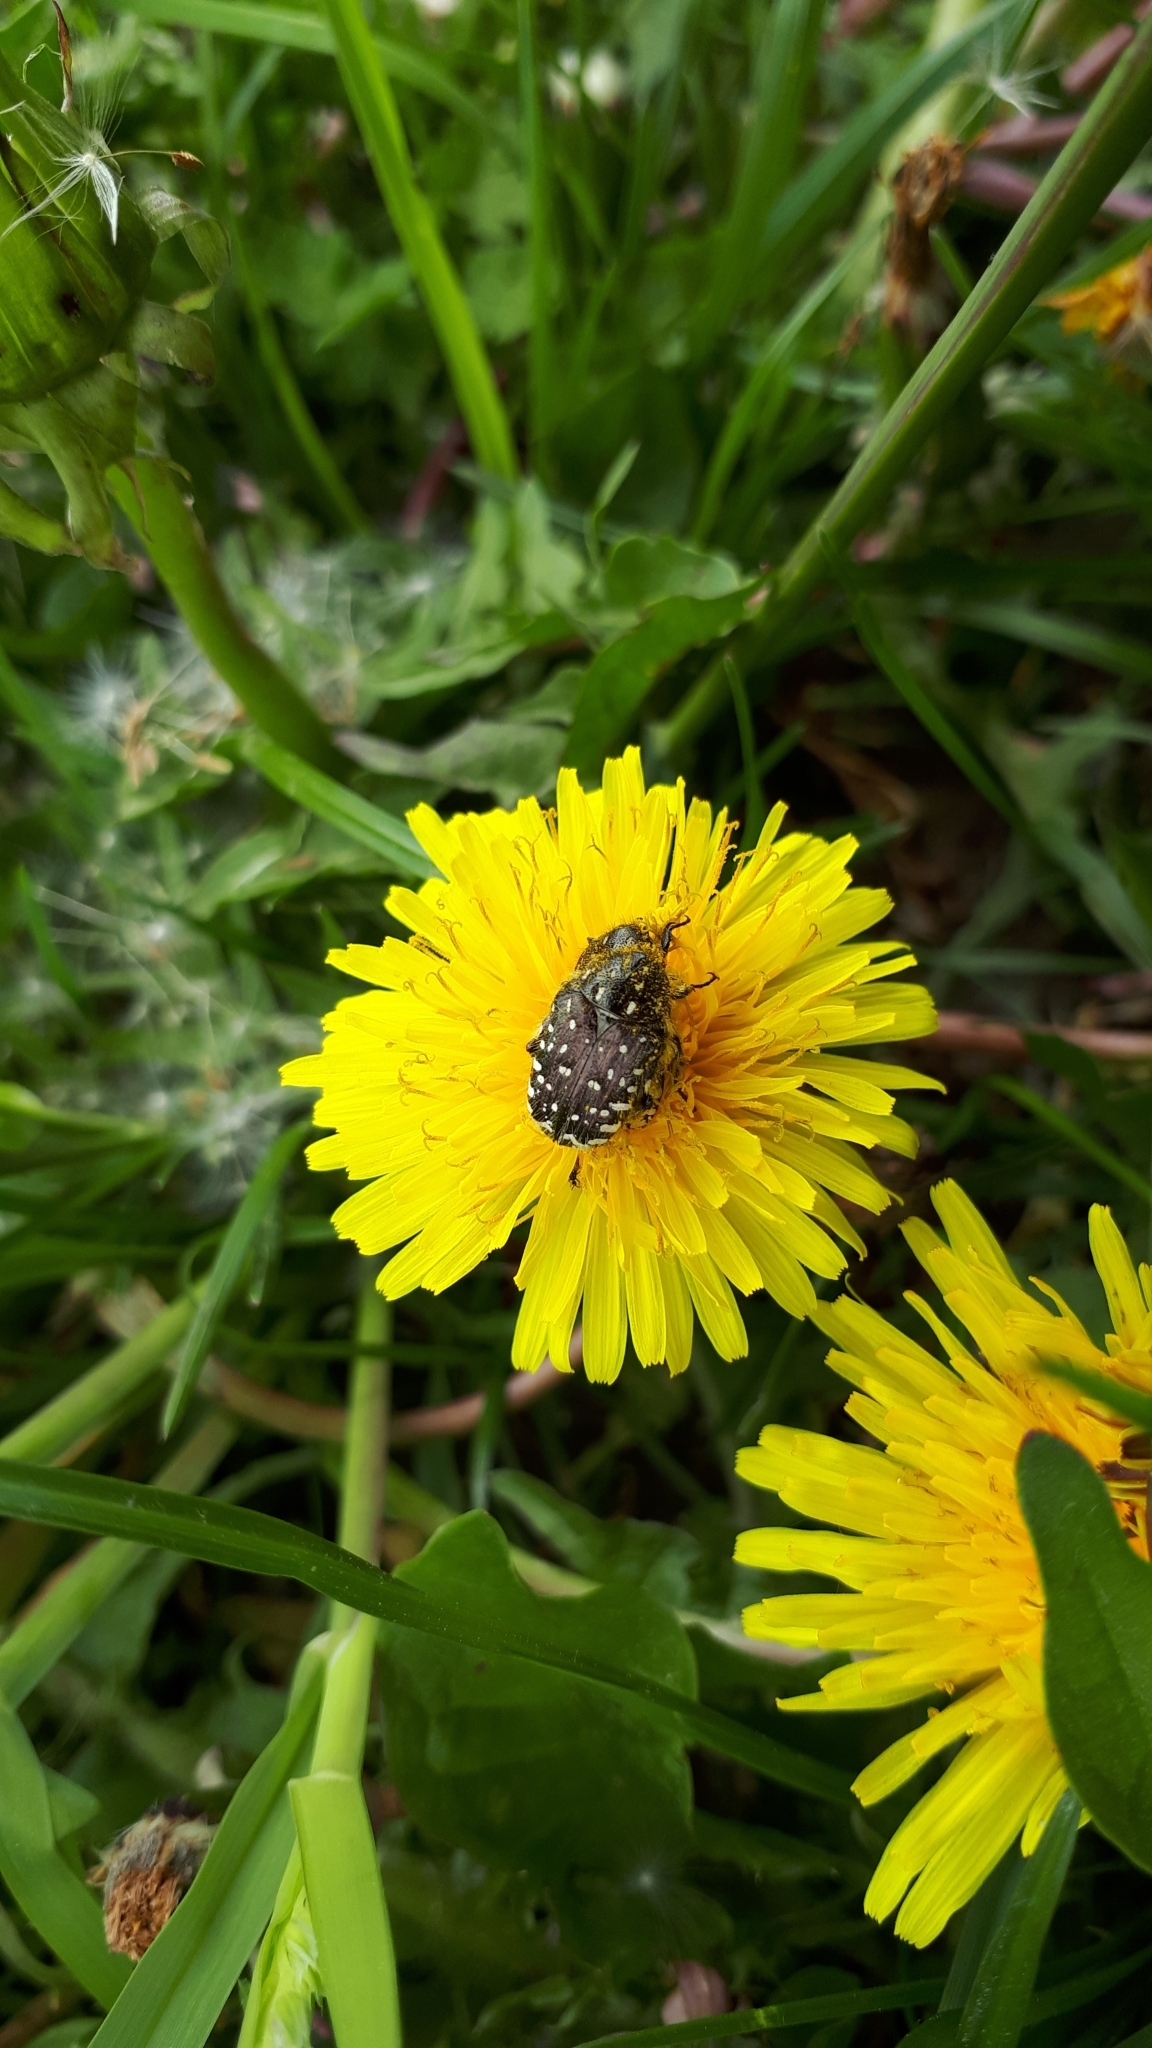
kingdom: Animalia
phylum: Arthropoda
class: Insecta
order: Coleoptera
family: Scarabaeidae
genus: Oxythyrea
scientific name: Oxythyrea funesta
